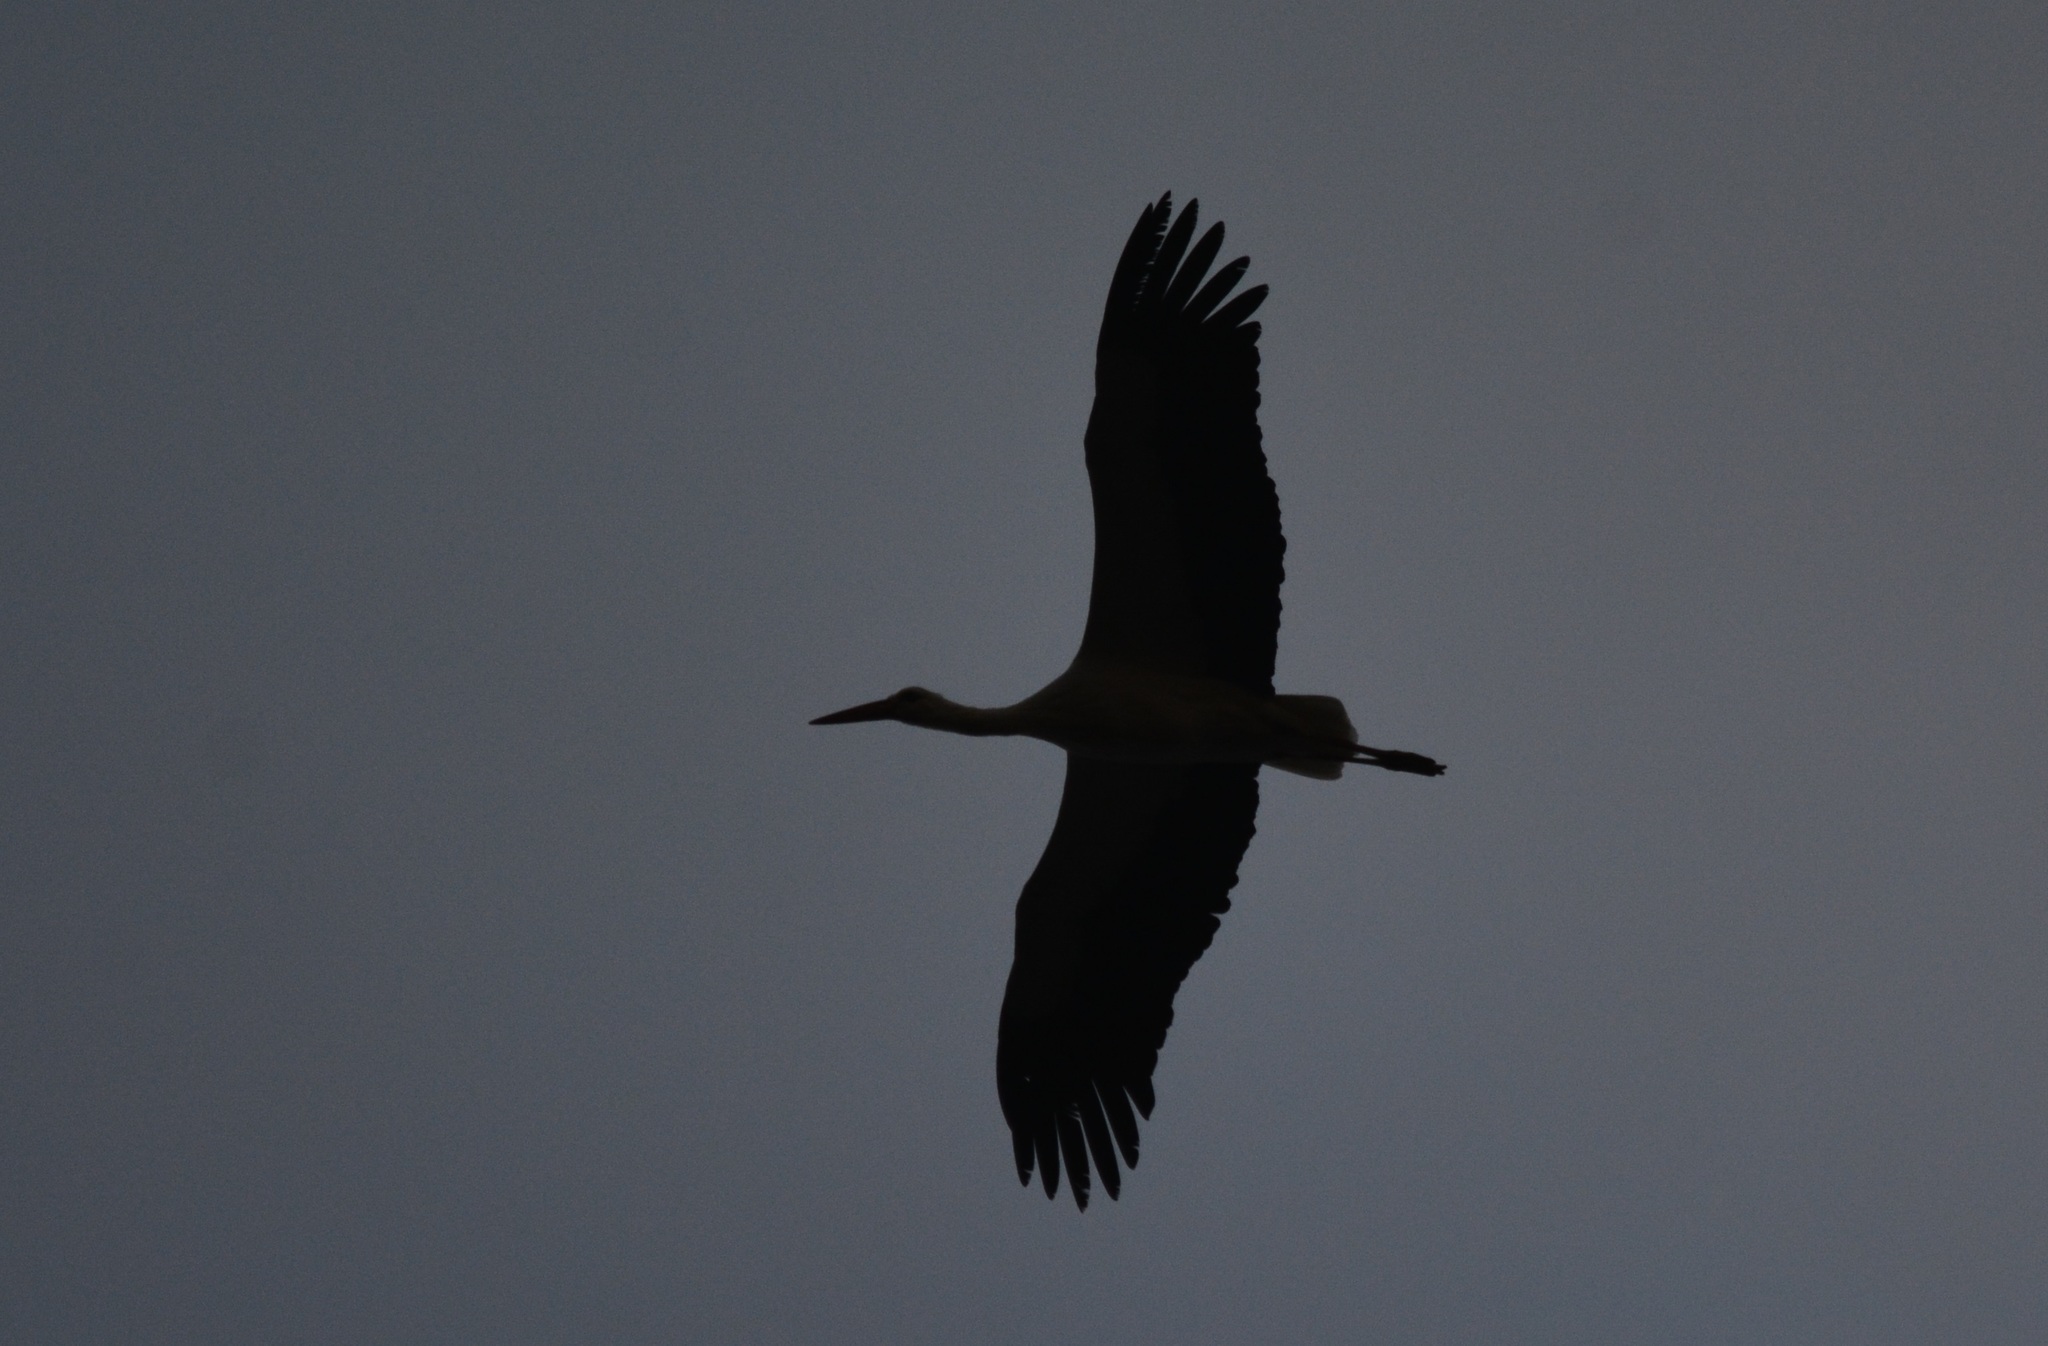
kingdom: Animalia
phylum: Chordata
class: Aves
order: Ciconiiformes
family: Ciconiidae
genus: Ciconia
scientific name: Ciconia ciconia
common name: White stork
